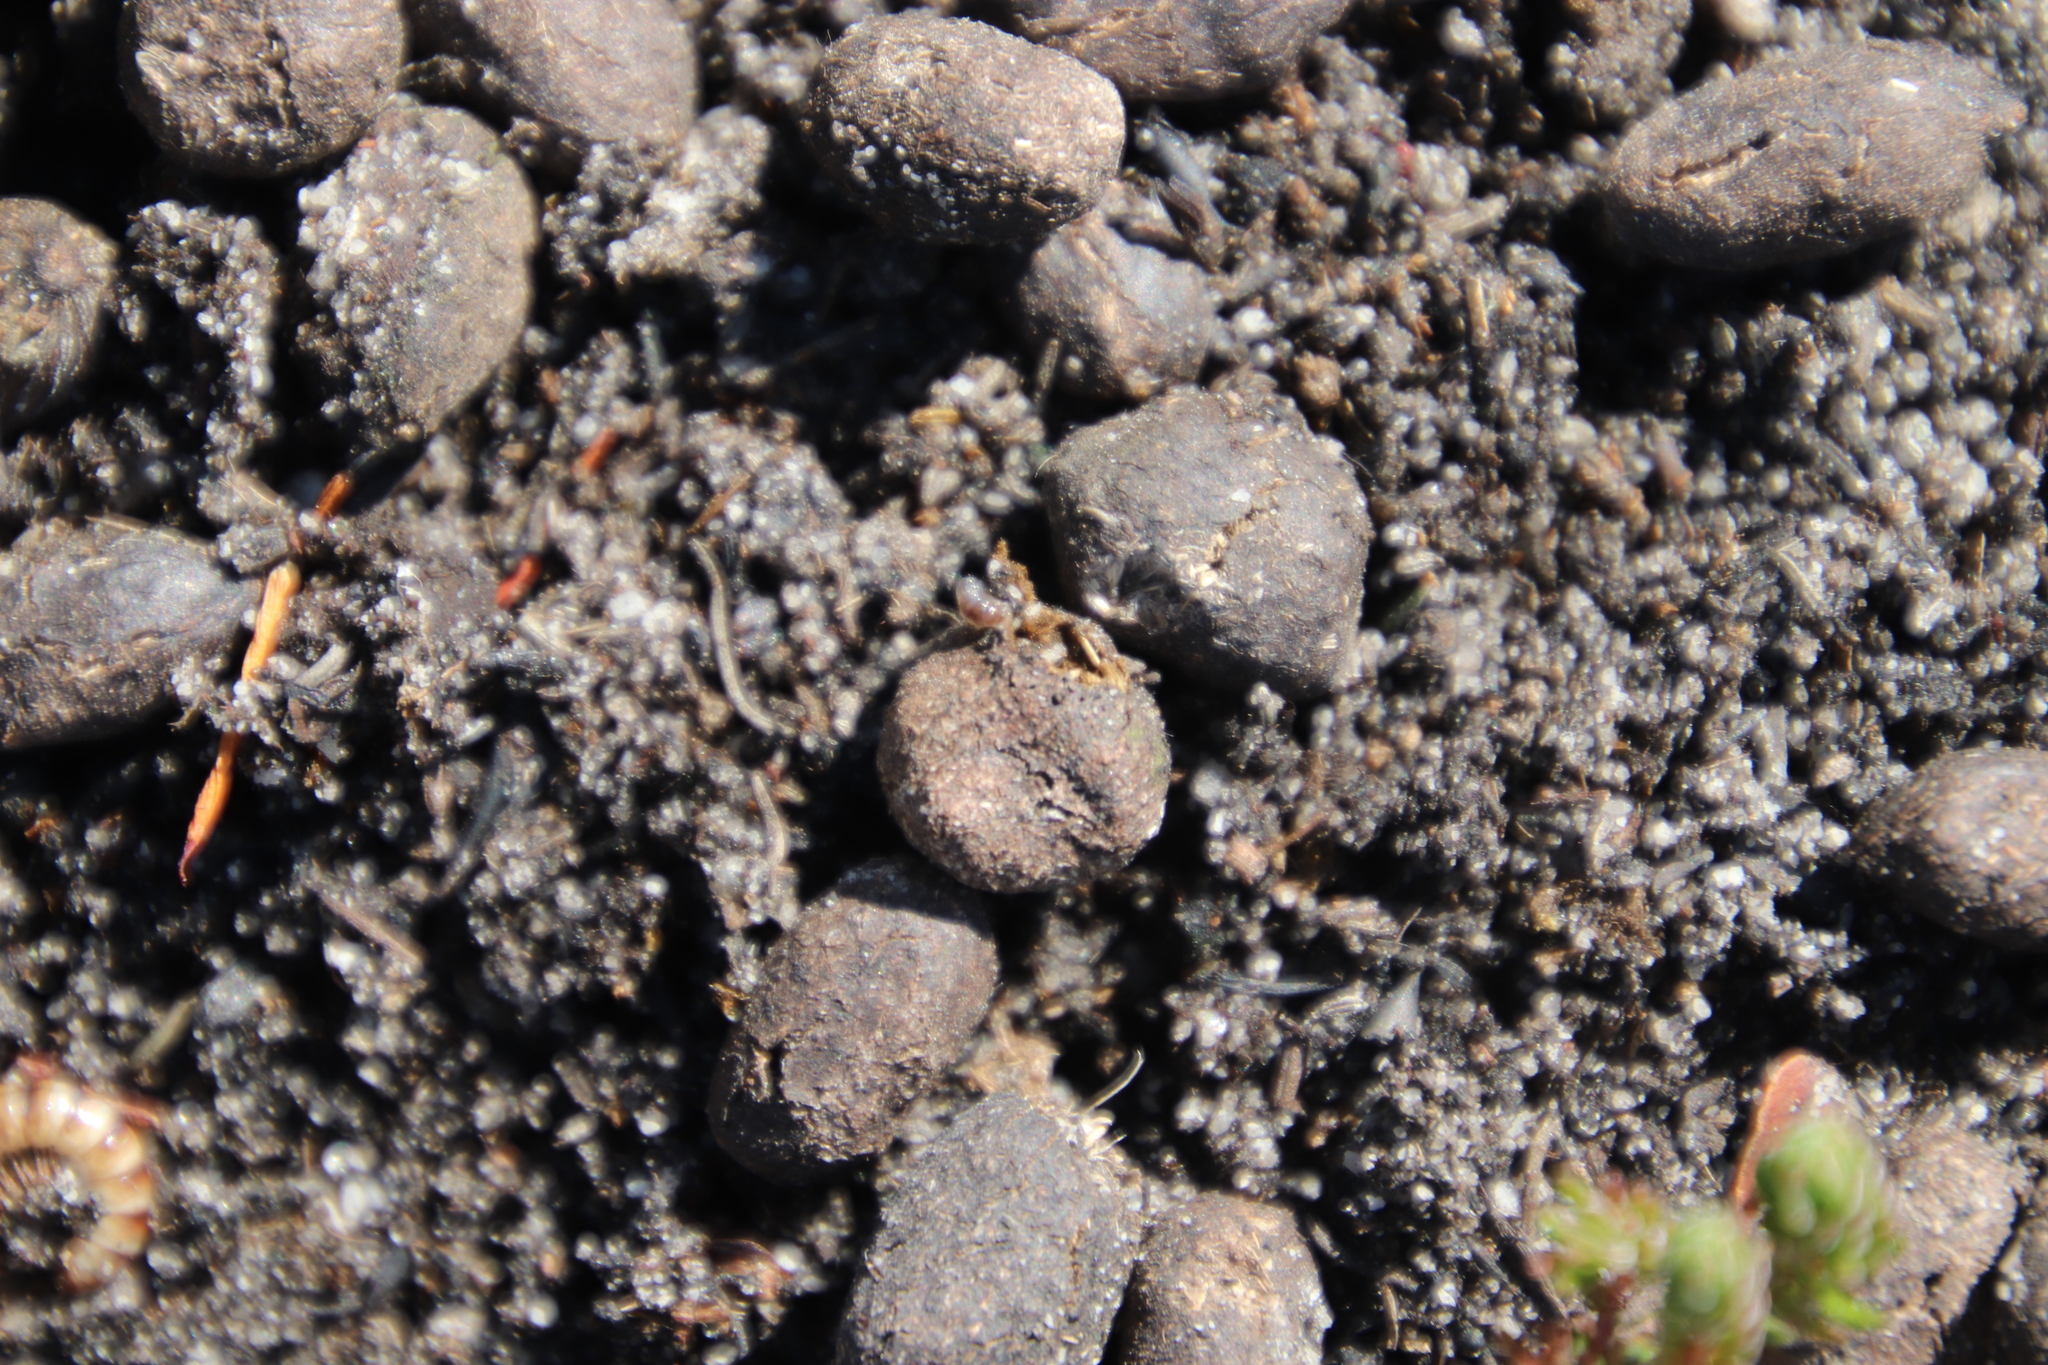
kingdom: Animalia
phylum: Chordata
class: Mammalia
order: Artiodactyla
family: Bovidae
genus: Oreotragus
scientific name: Oreotragus oreotragus
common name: Klipspringer
